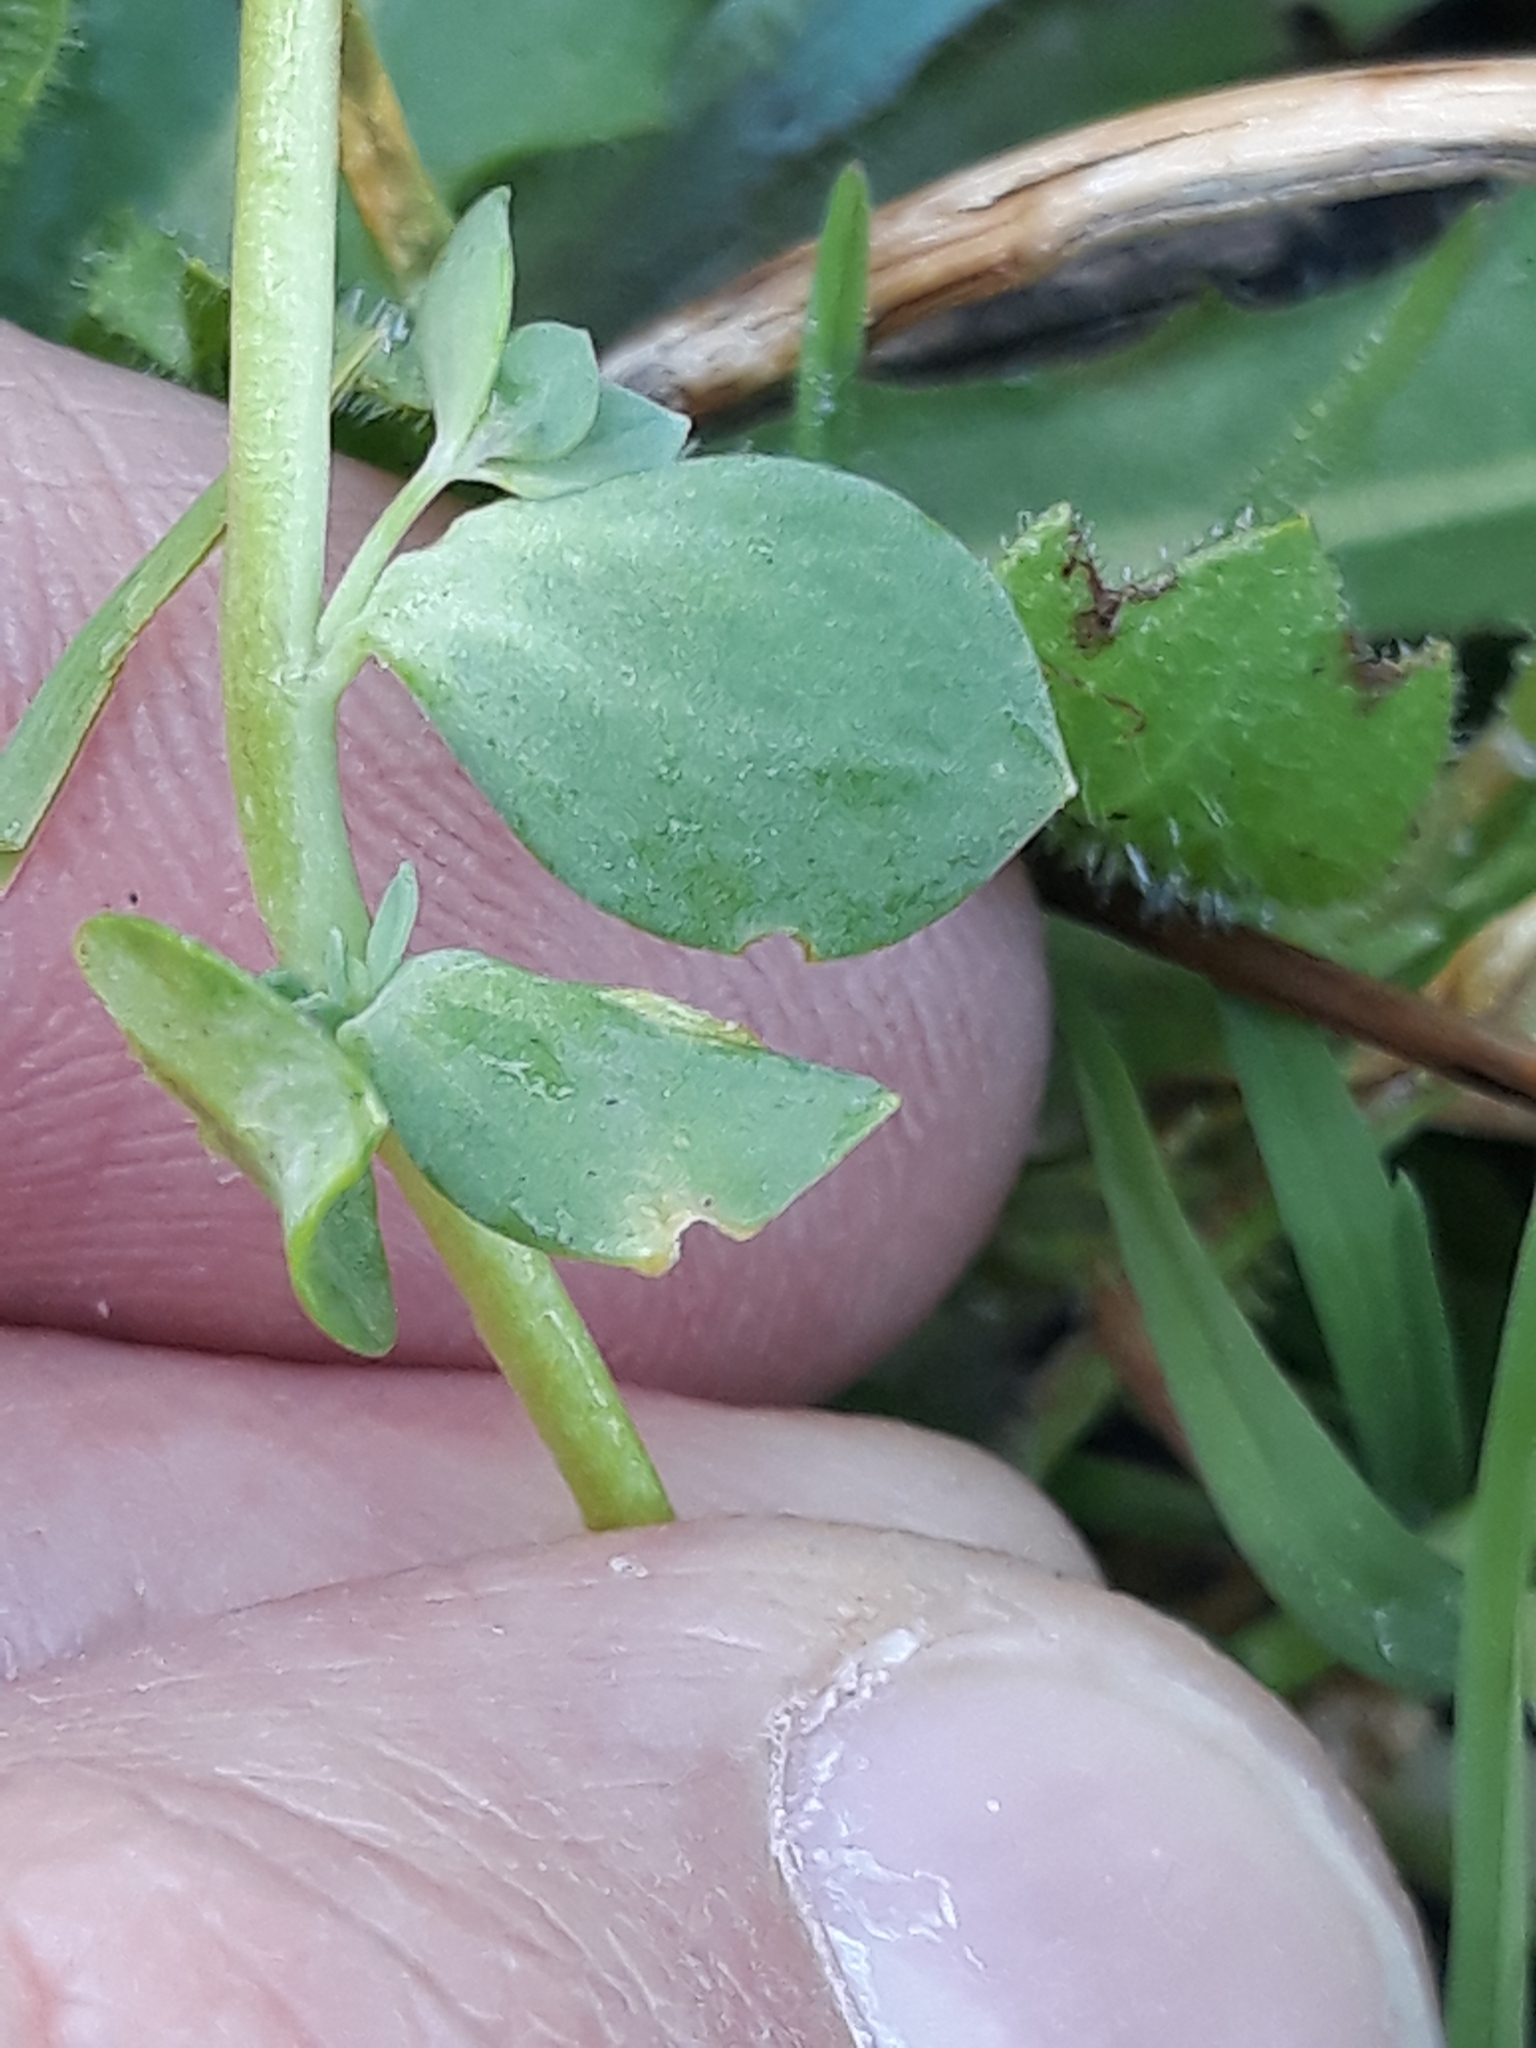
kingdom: Plantae
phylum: Tracheophyta
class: Magnoliopsida
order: Lamiales
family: Plantaginaceae
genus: Linaria
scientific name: Linaria reflexa
